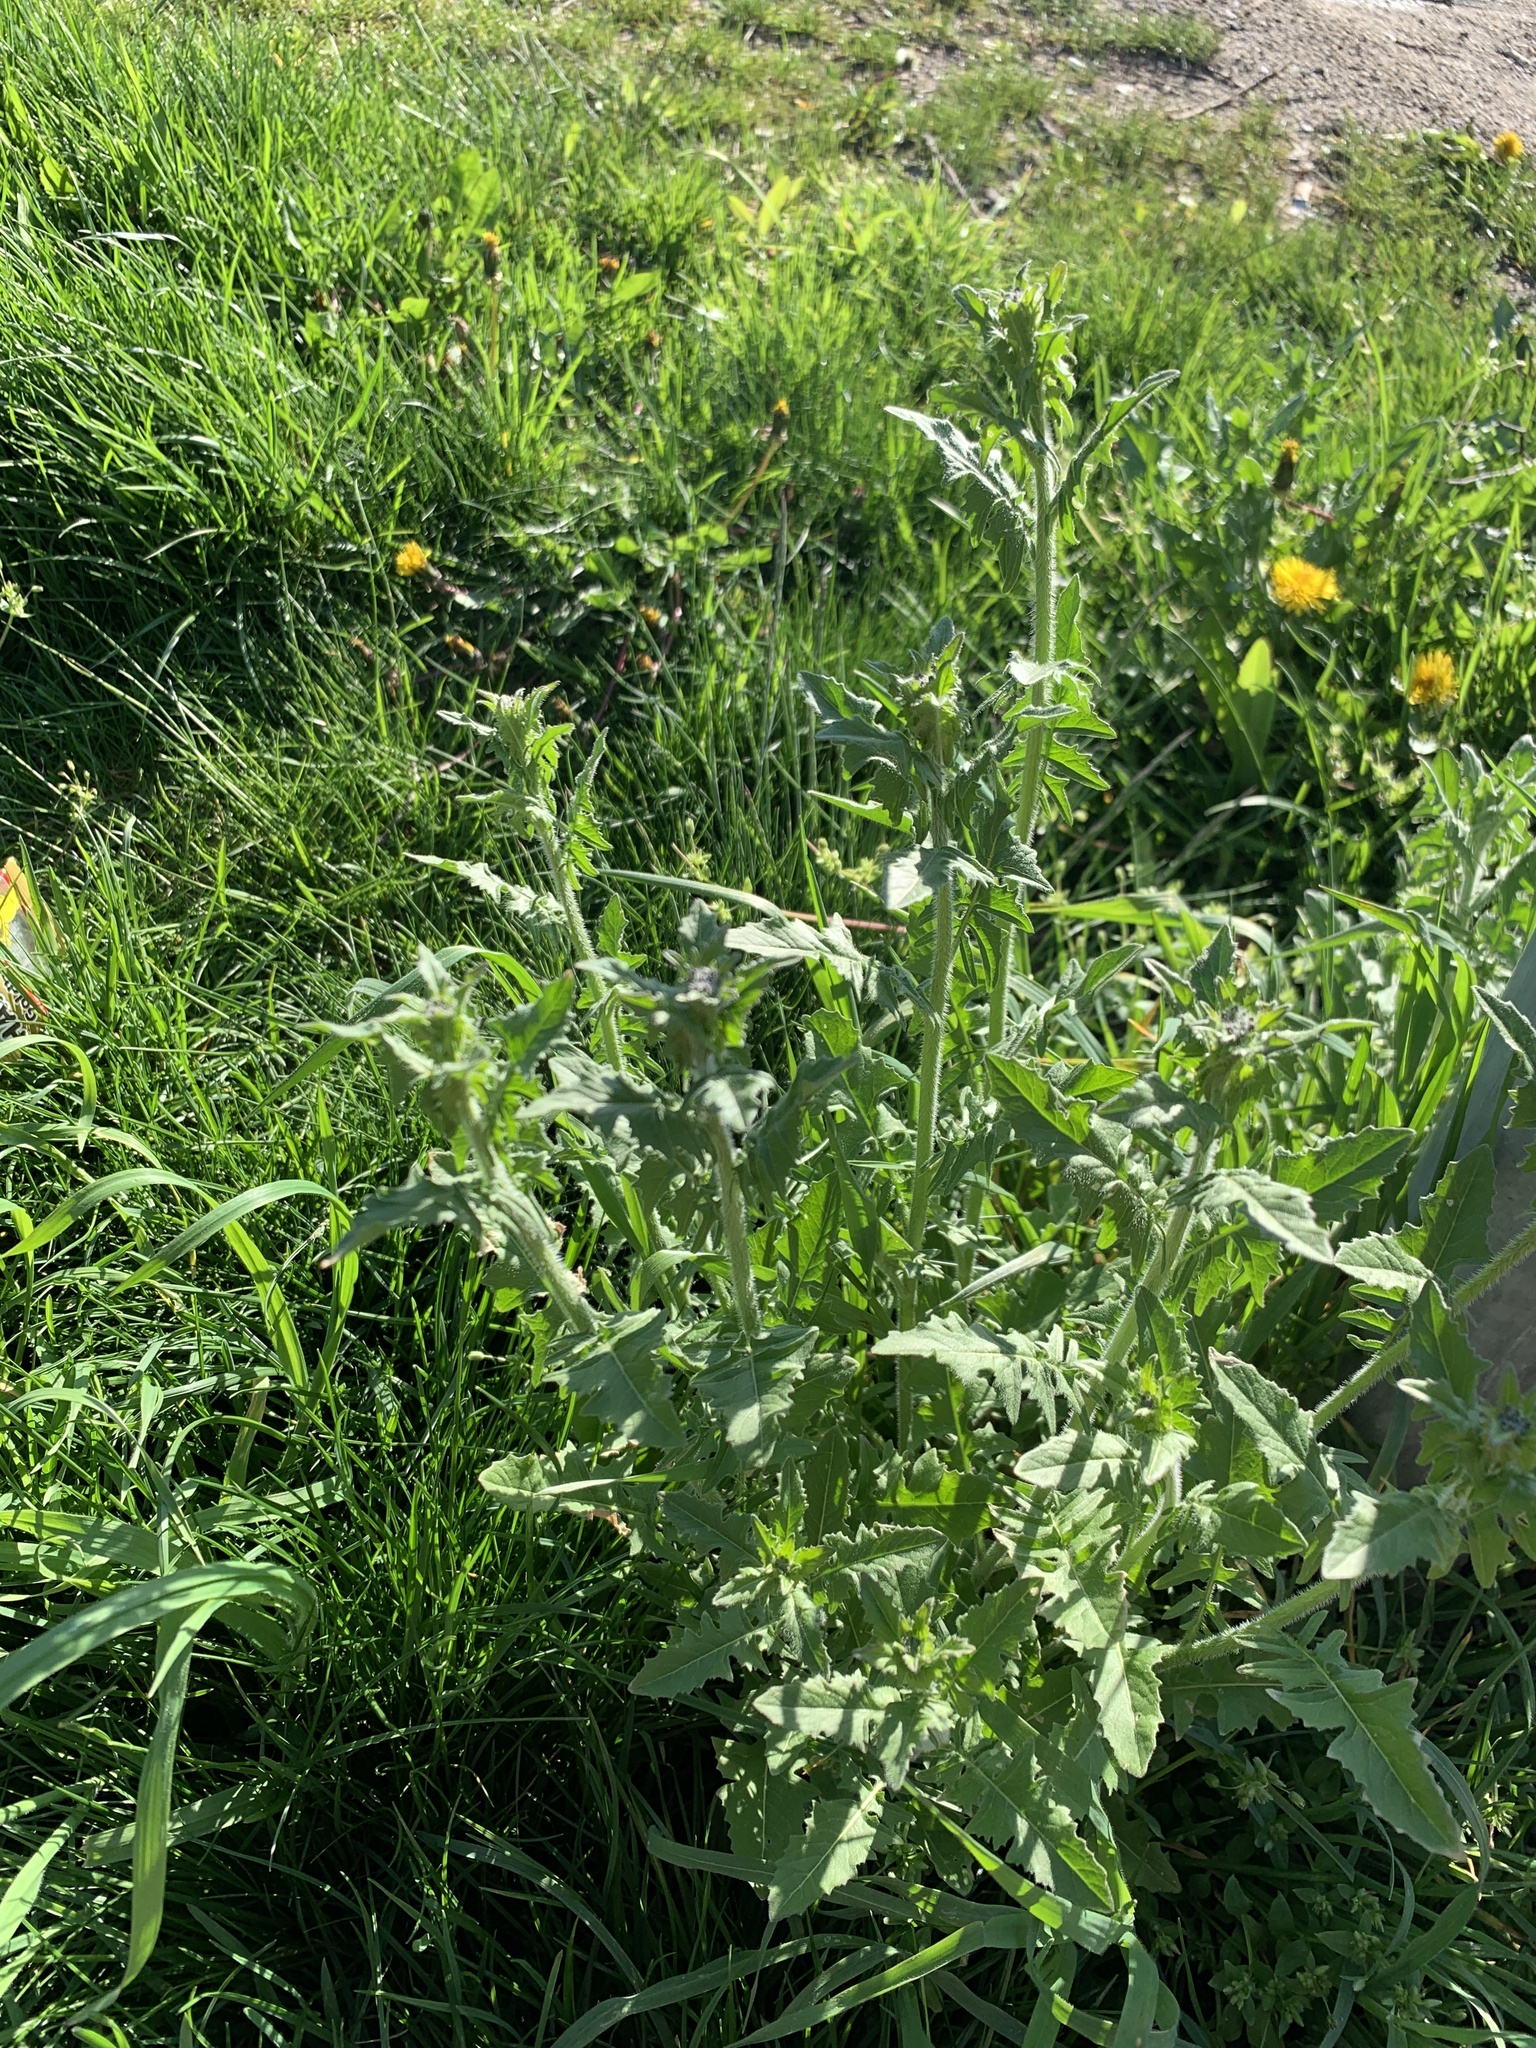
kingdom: Plantae
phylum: Tracheophyta
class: Magnoliopsida
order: Brassicales
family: Brassicaceae
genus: Sisymbrium
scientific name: Sisymbrium loeselii
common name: False london-rocket
